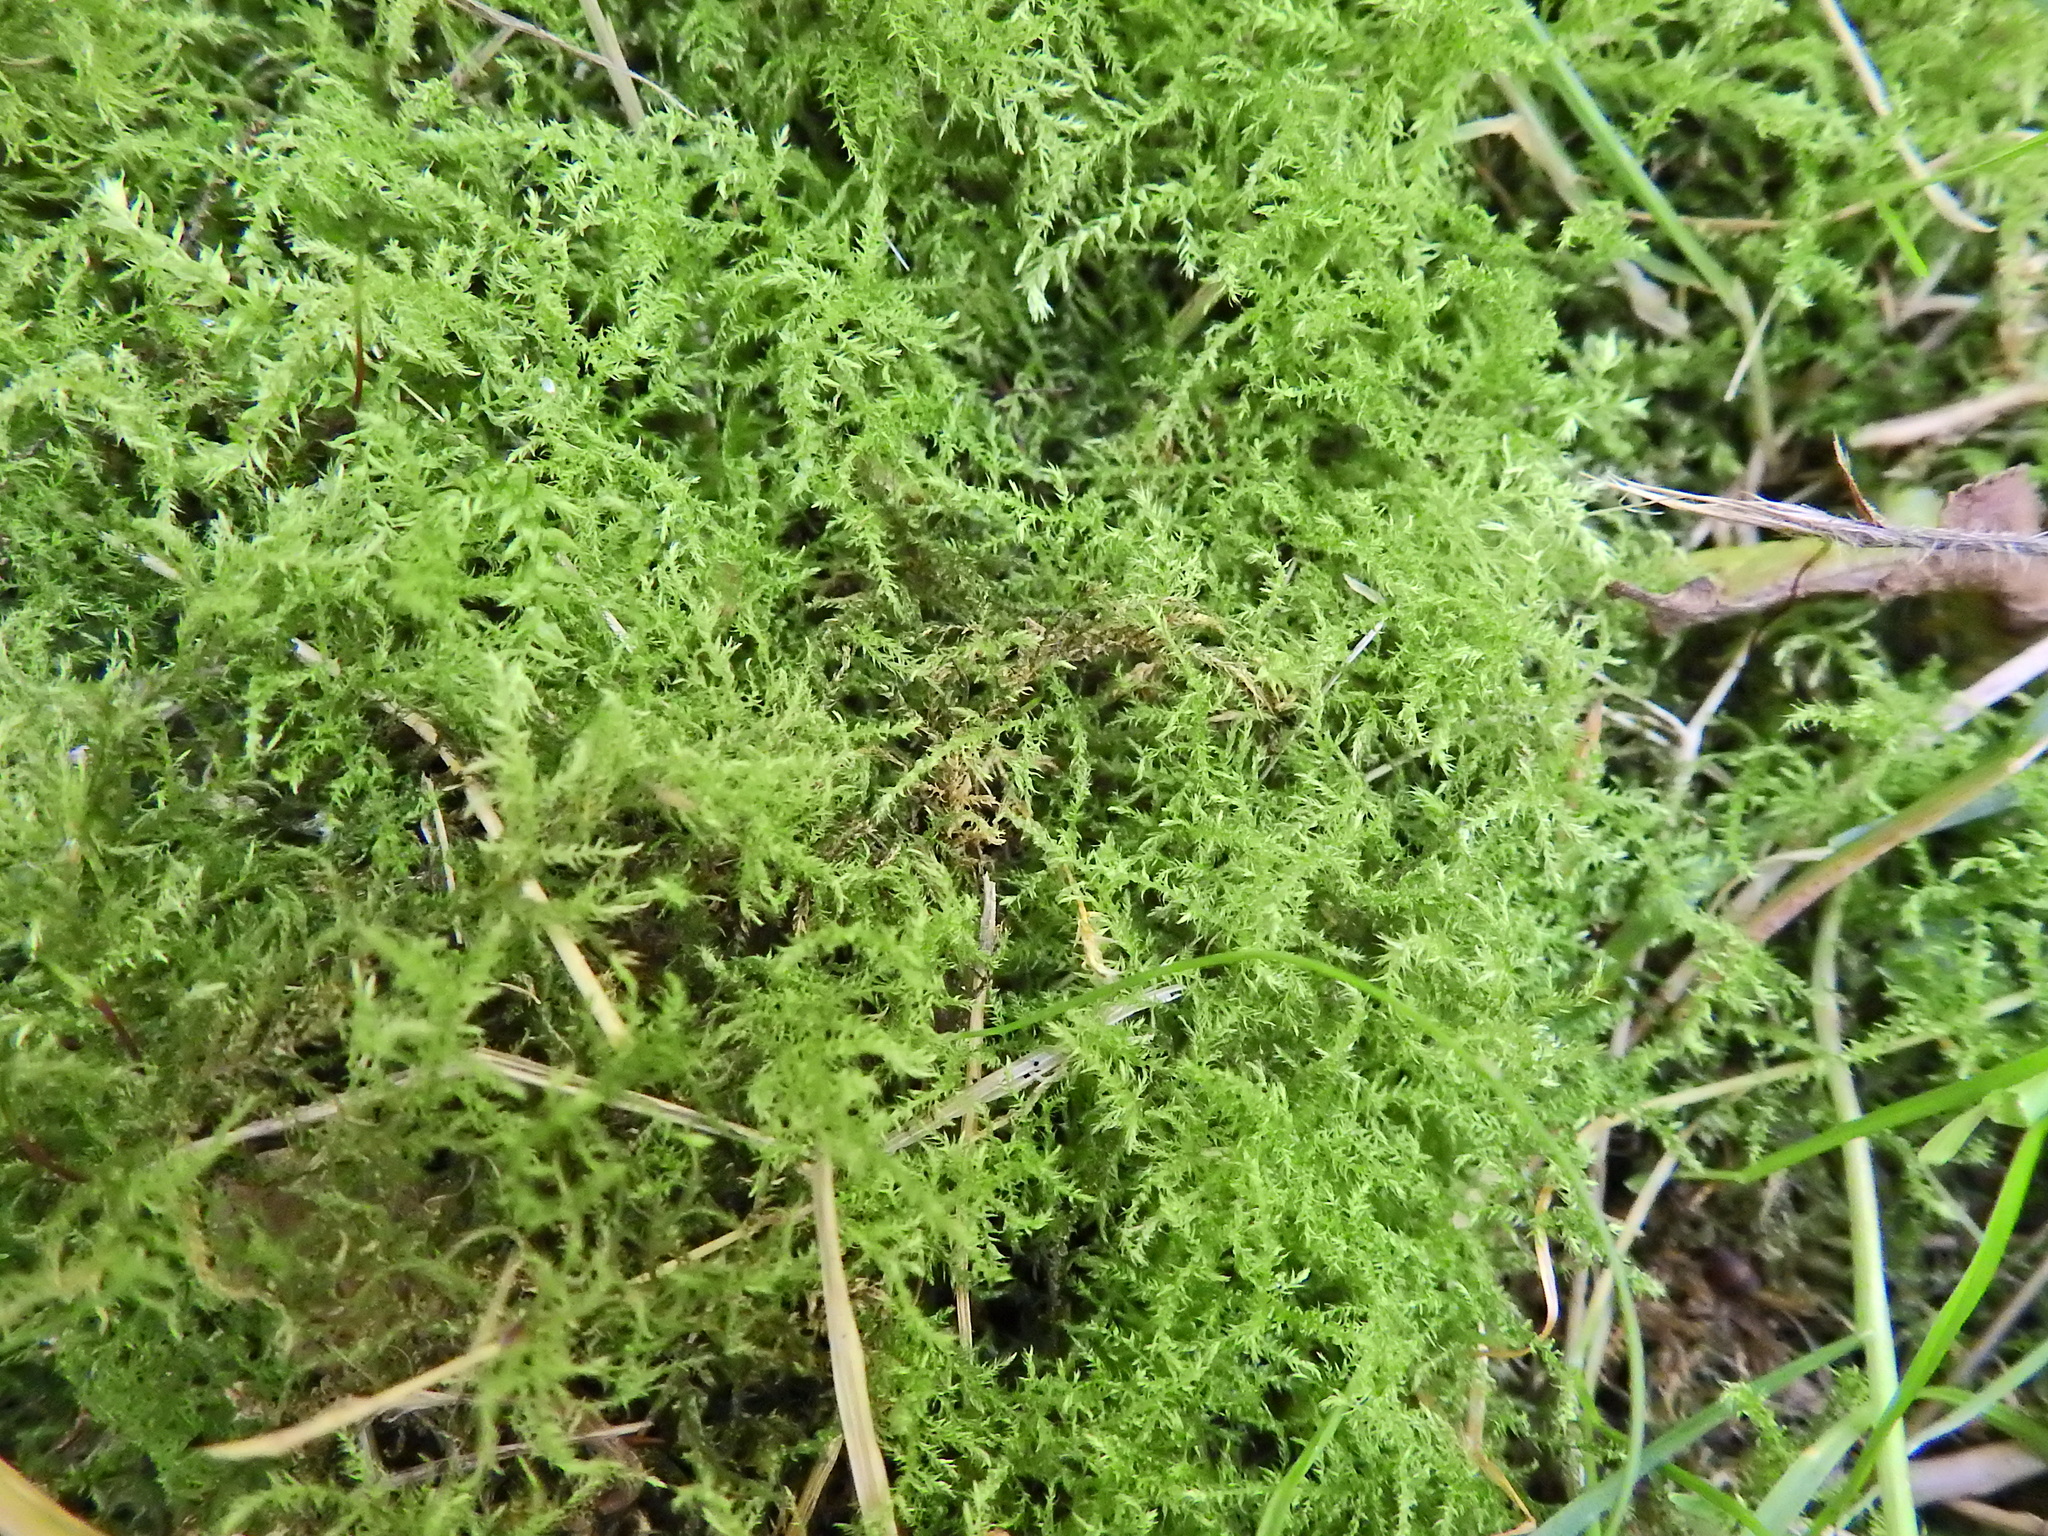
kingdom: Plantae
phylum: Bryophyta
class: Bryopsida
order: Hypnales
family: Brachytheciaceae
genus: Kindbergia
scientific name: Kindbergia praelonga
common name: Slender beaked moss
